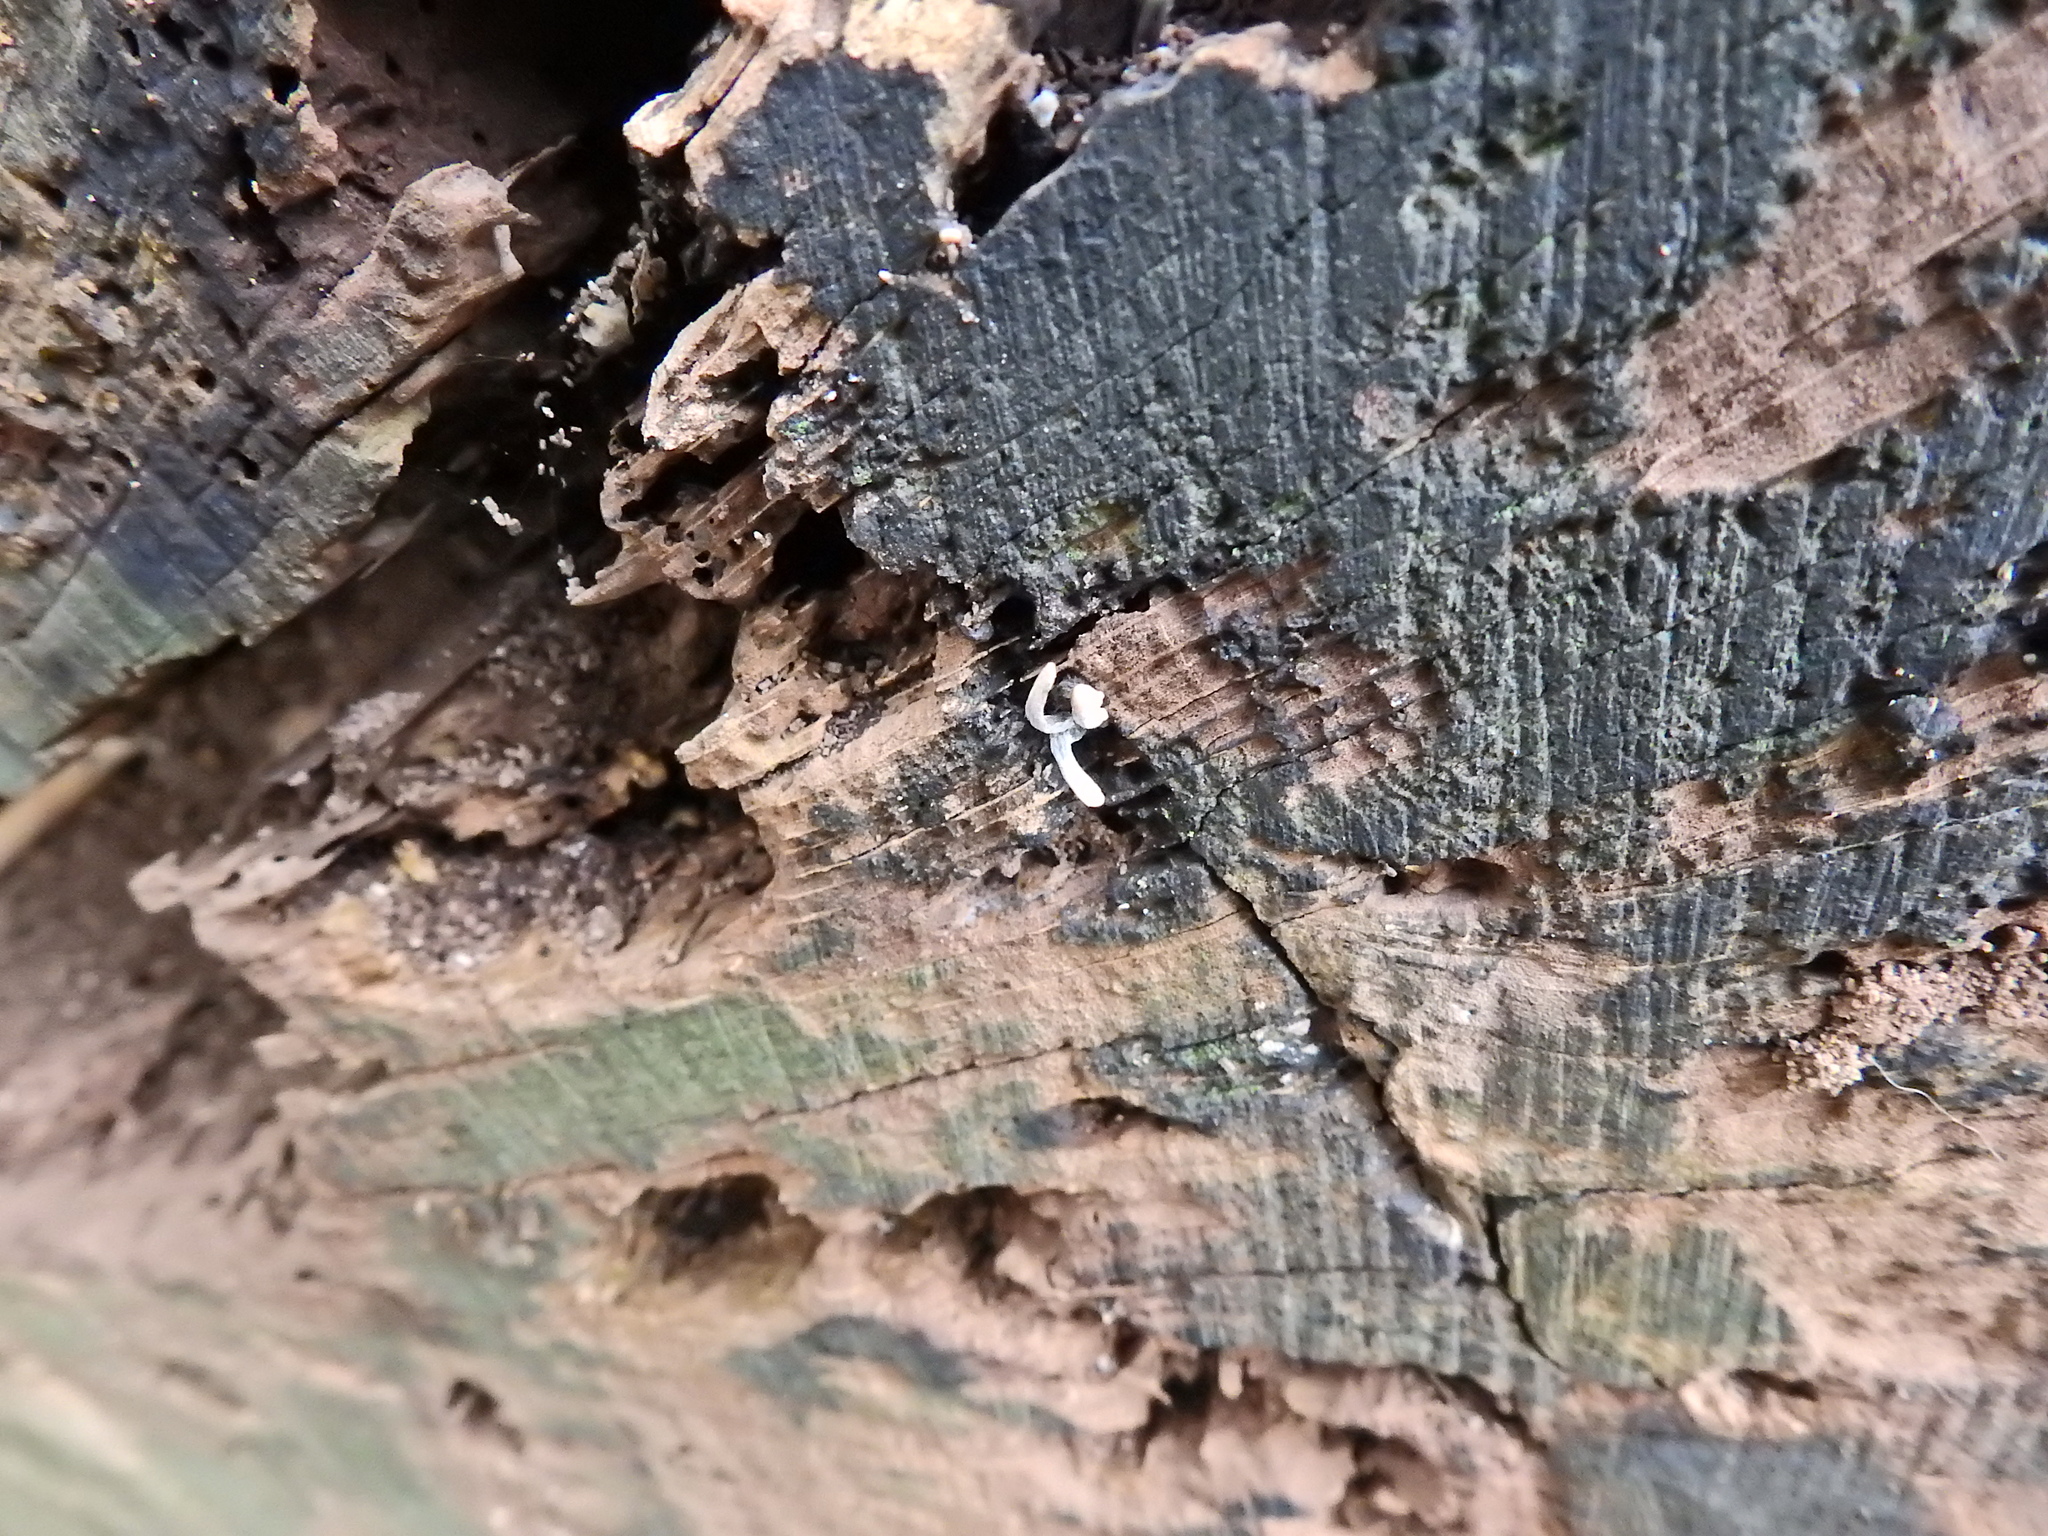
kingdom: Fungi
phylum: Ascomycota
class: Sordariomycetes
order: Xylariales
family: Xylariaceae
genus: Xylaria
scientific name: Xylaria hypoxylon
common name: Candle-snuff fungus
